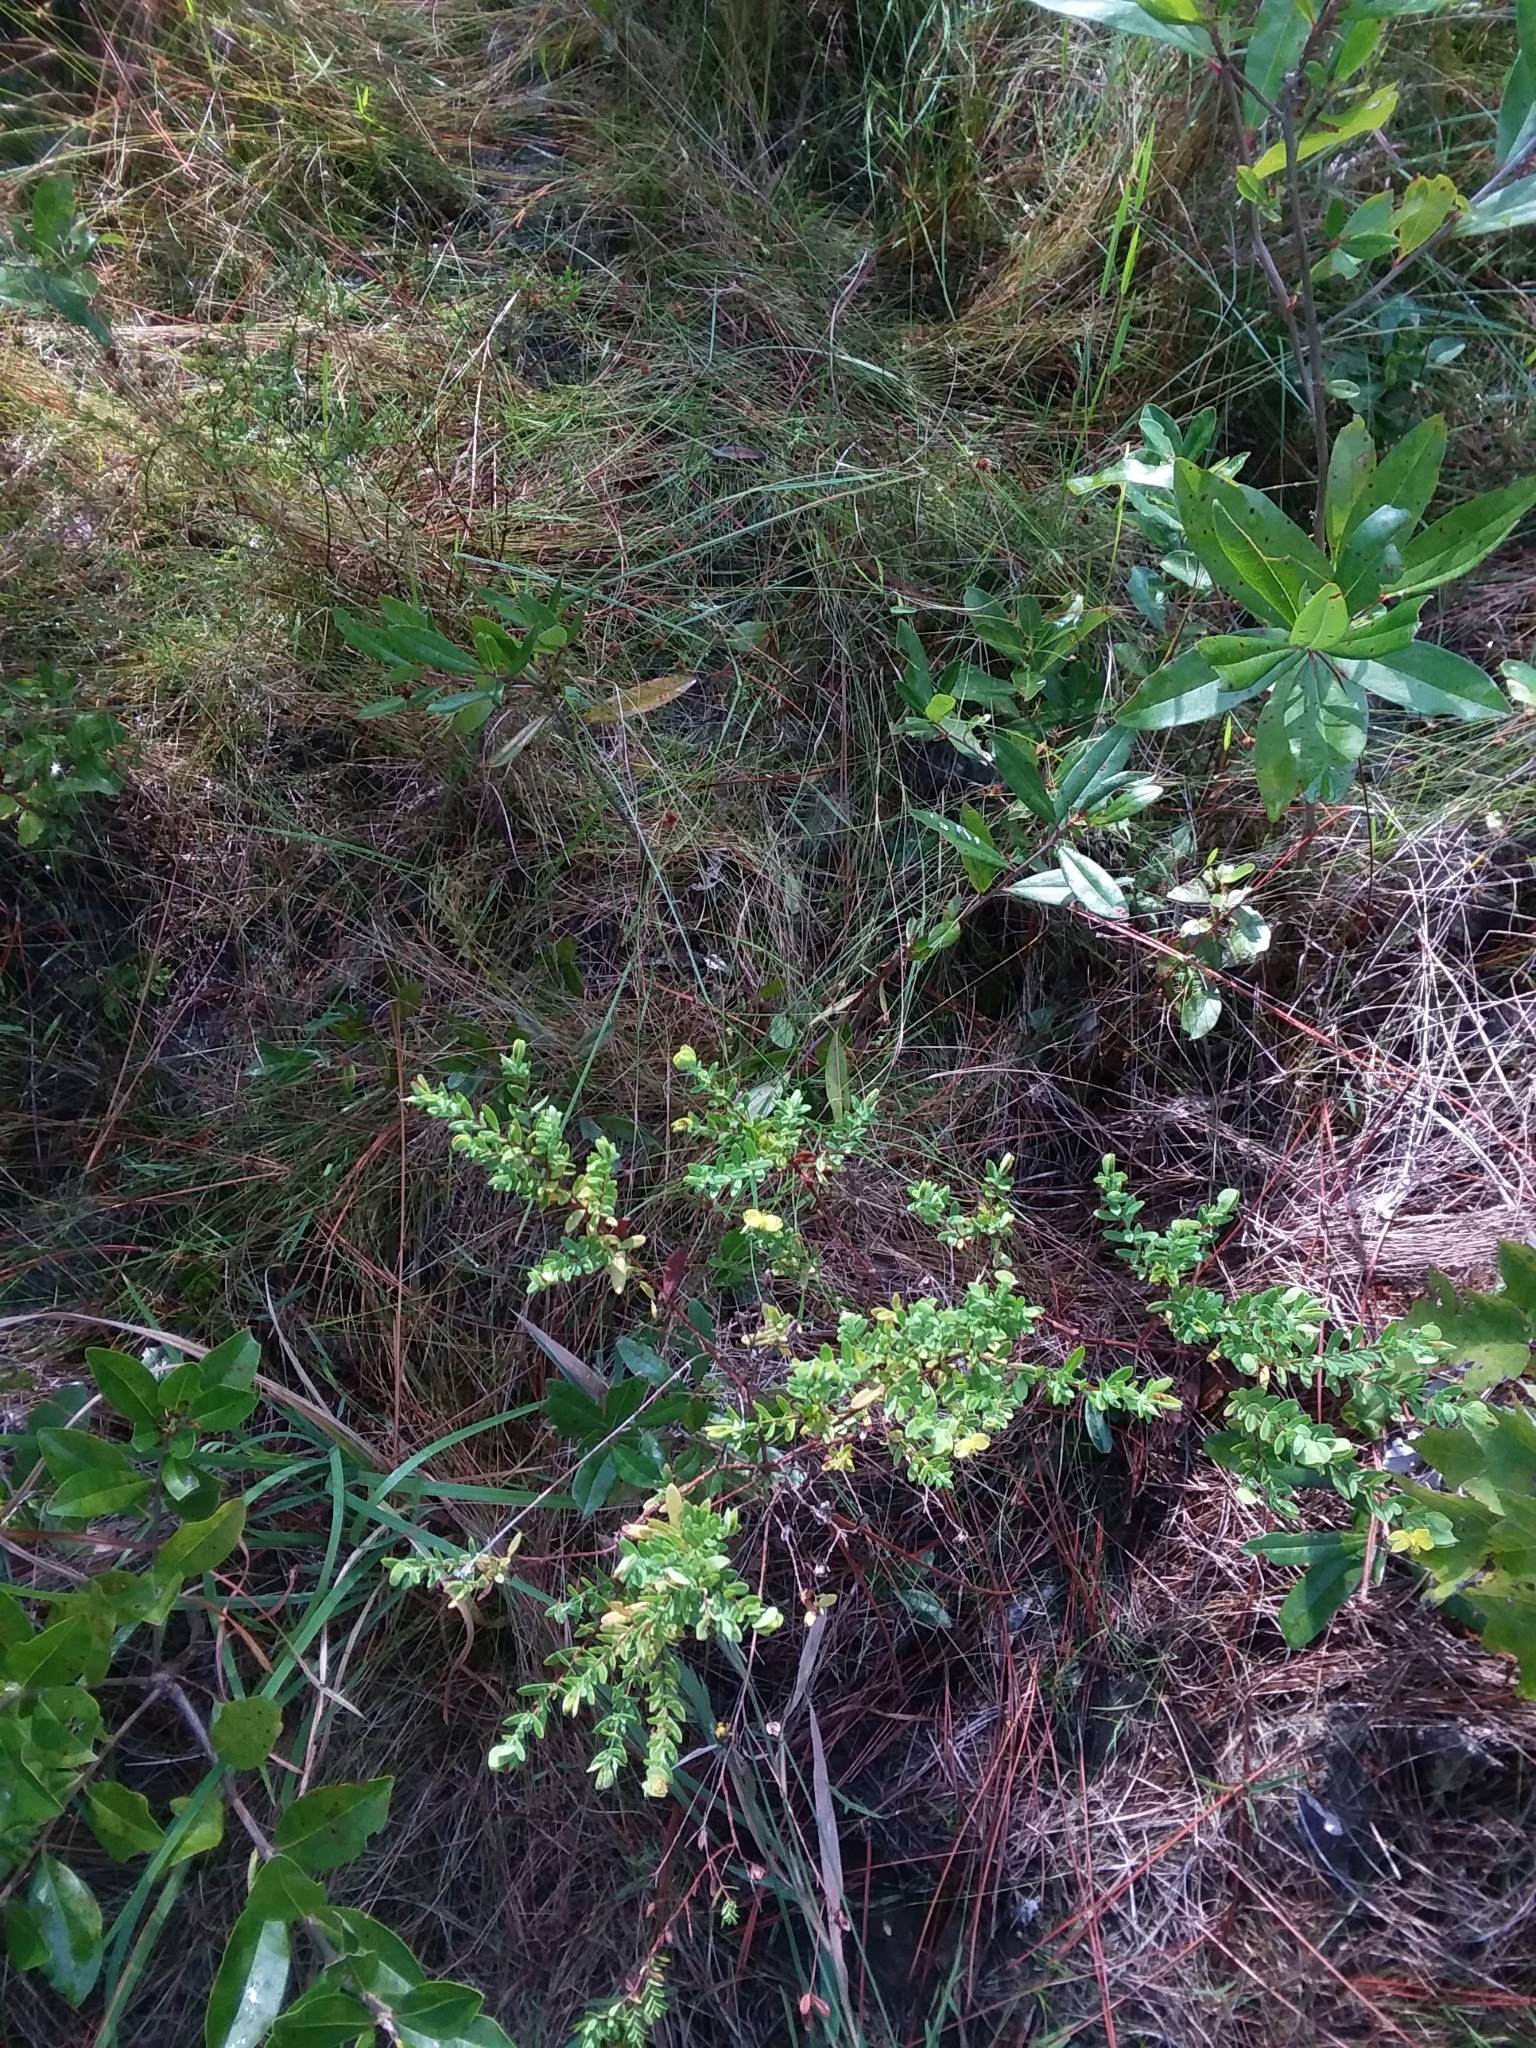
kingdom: Plantae
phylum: Tracheophyta
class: Magnoliopsida
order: Malpighiales
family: Hypericaceae
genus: Hypericum
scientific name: Hypericum hypericoides
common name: St. andrew's cross
